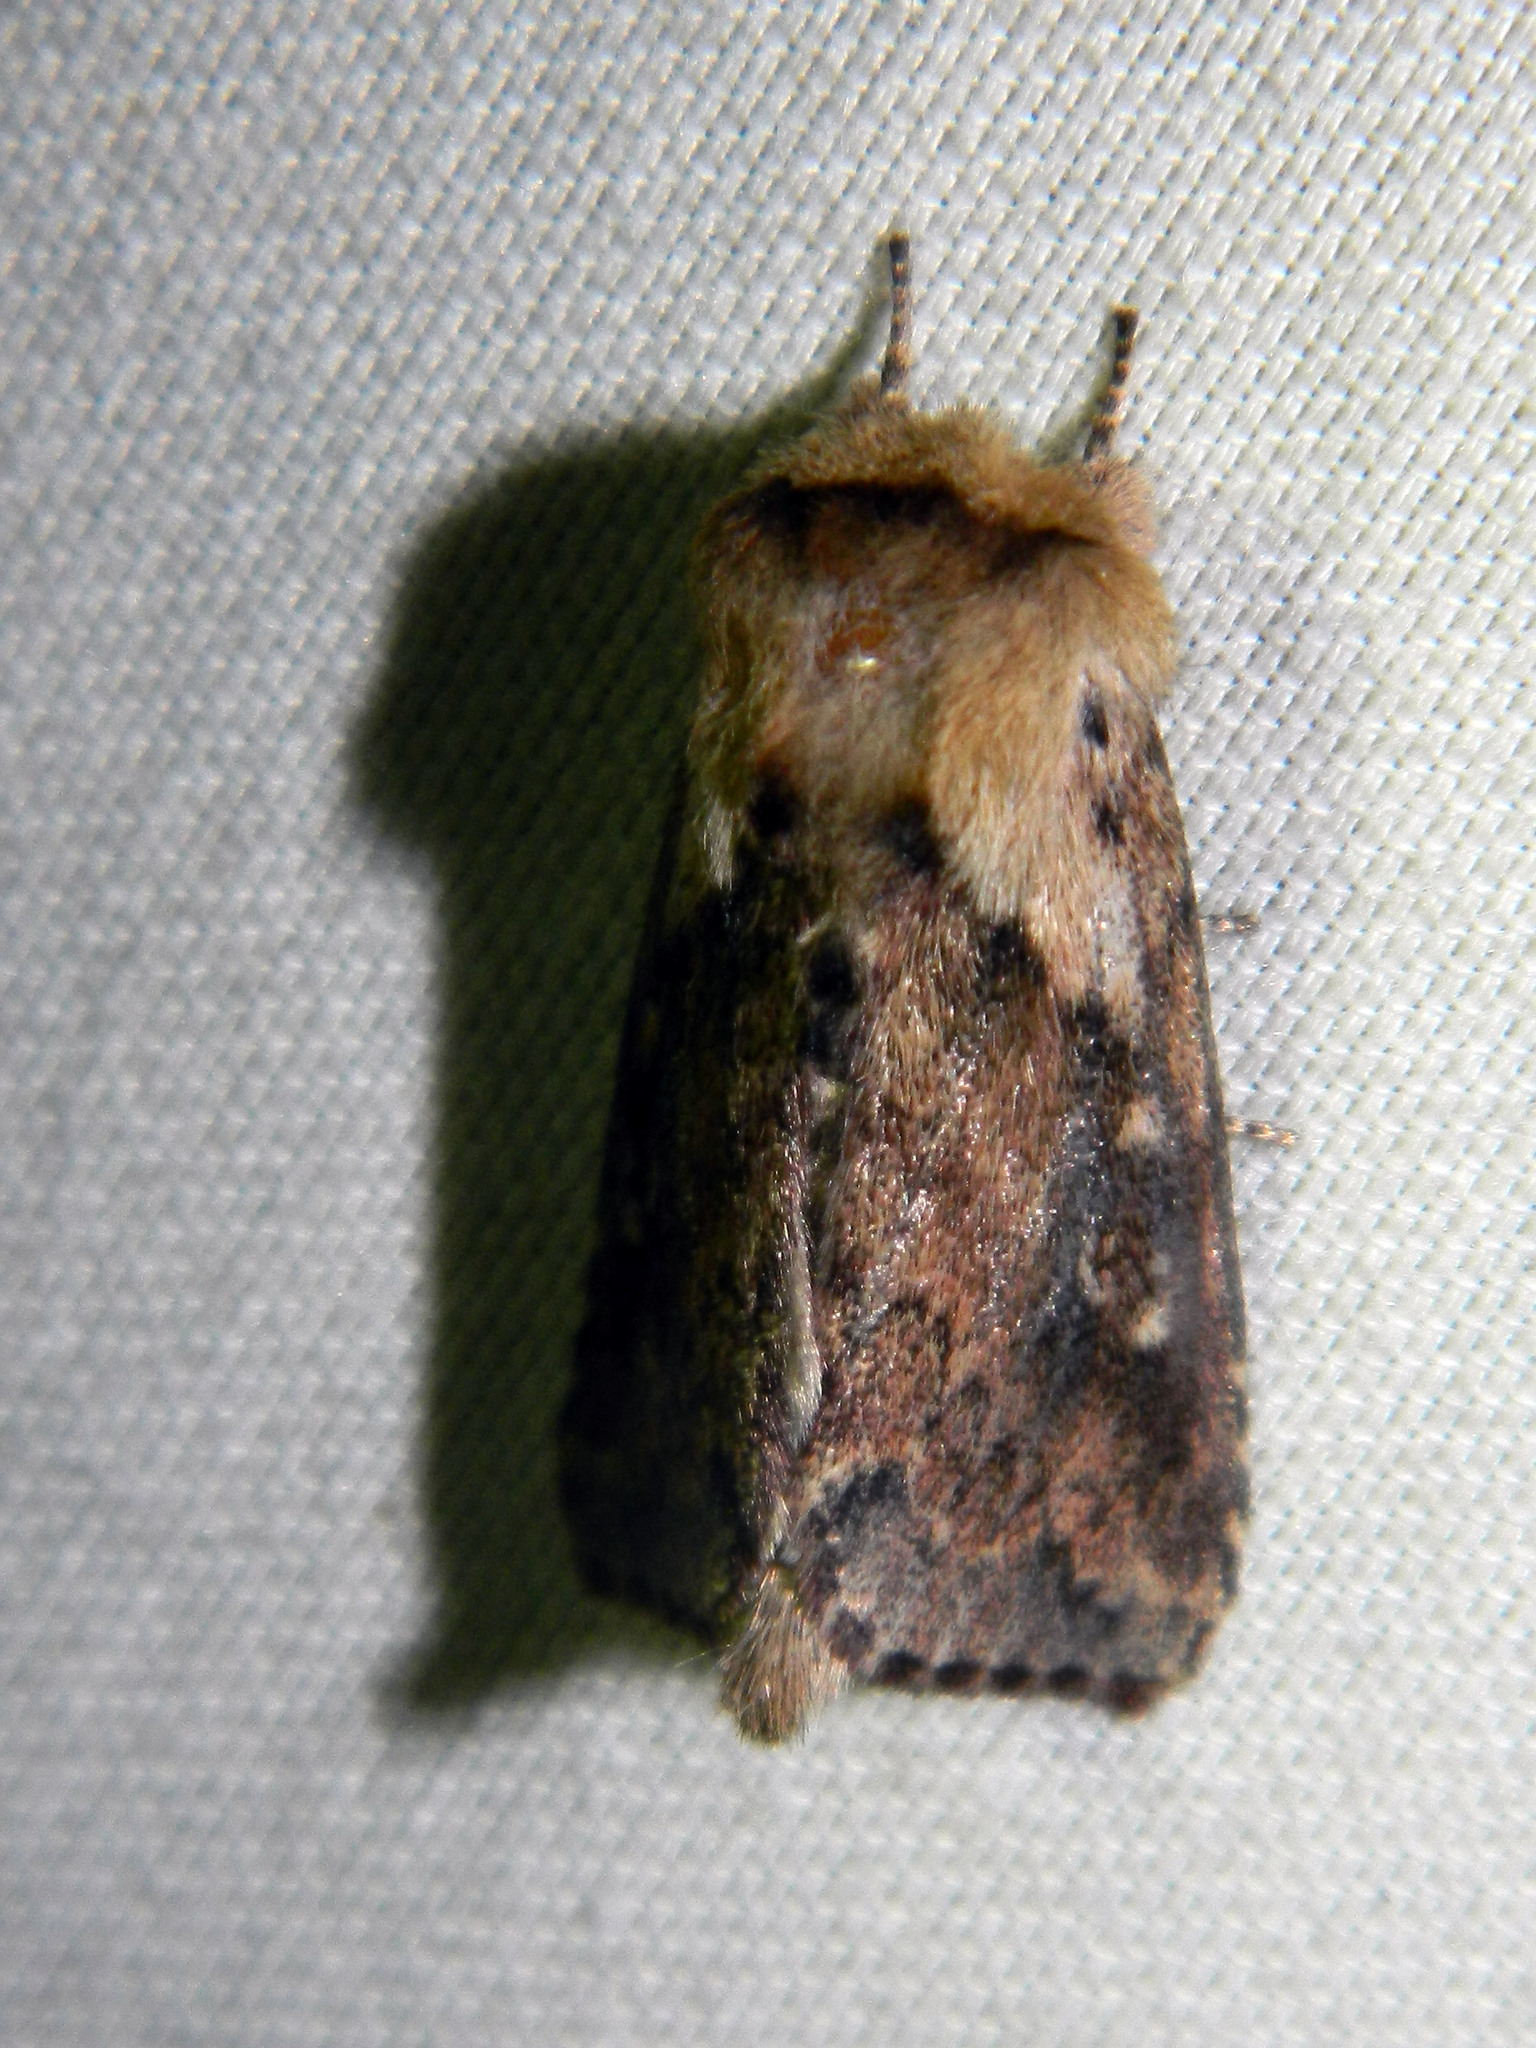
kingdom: Animalia
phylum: Arthropoda
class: Insecta
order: Lepidoptera
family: Noctuidae
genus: Bellura
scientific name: Bellura vulnifica
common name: Black-tailed diver moth
